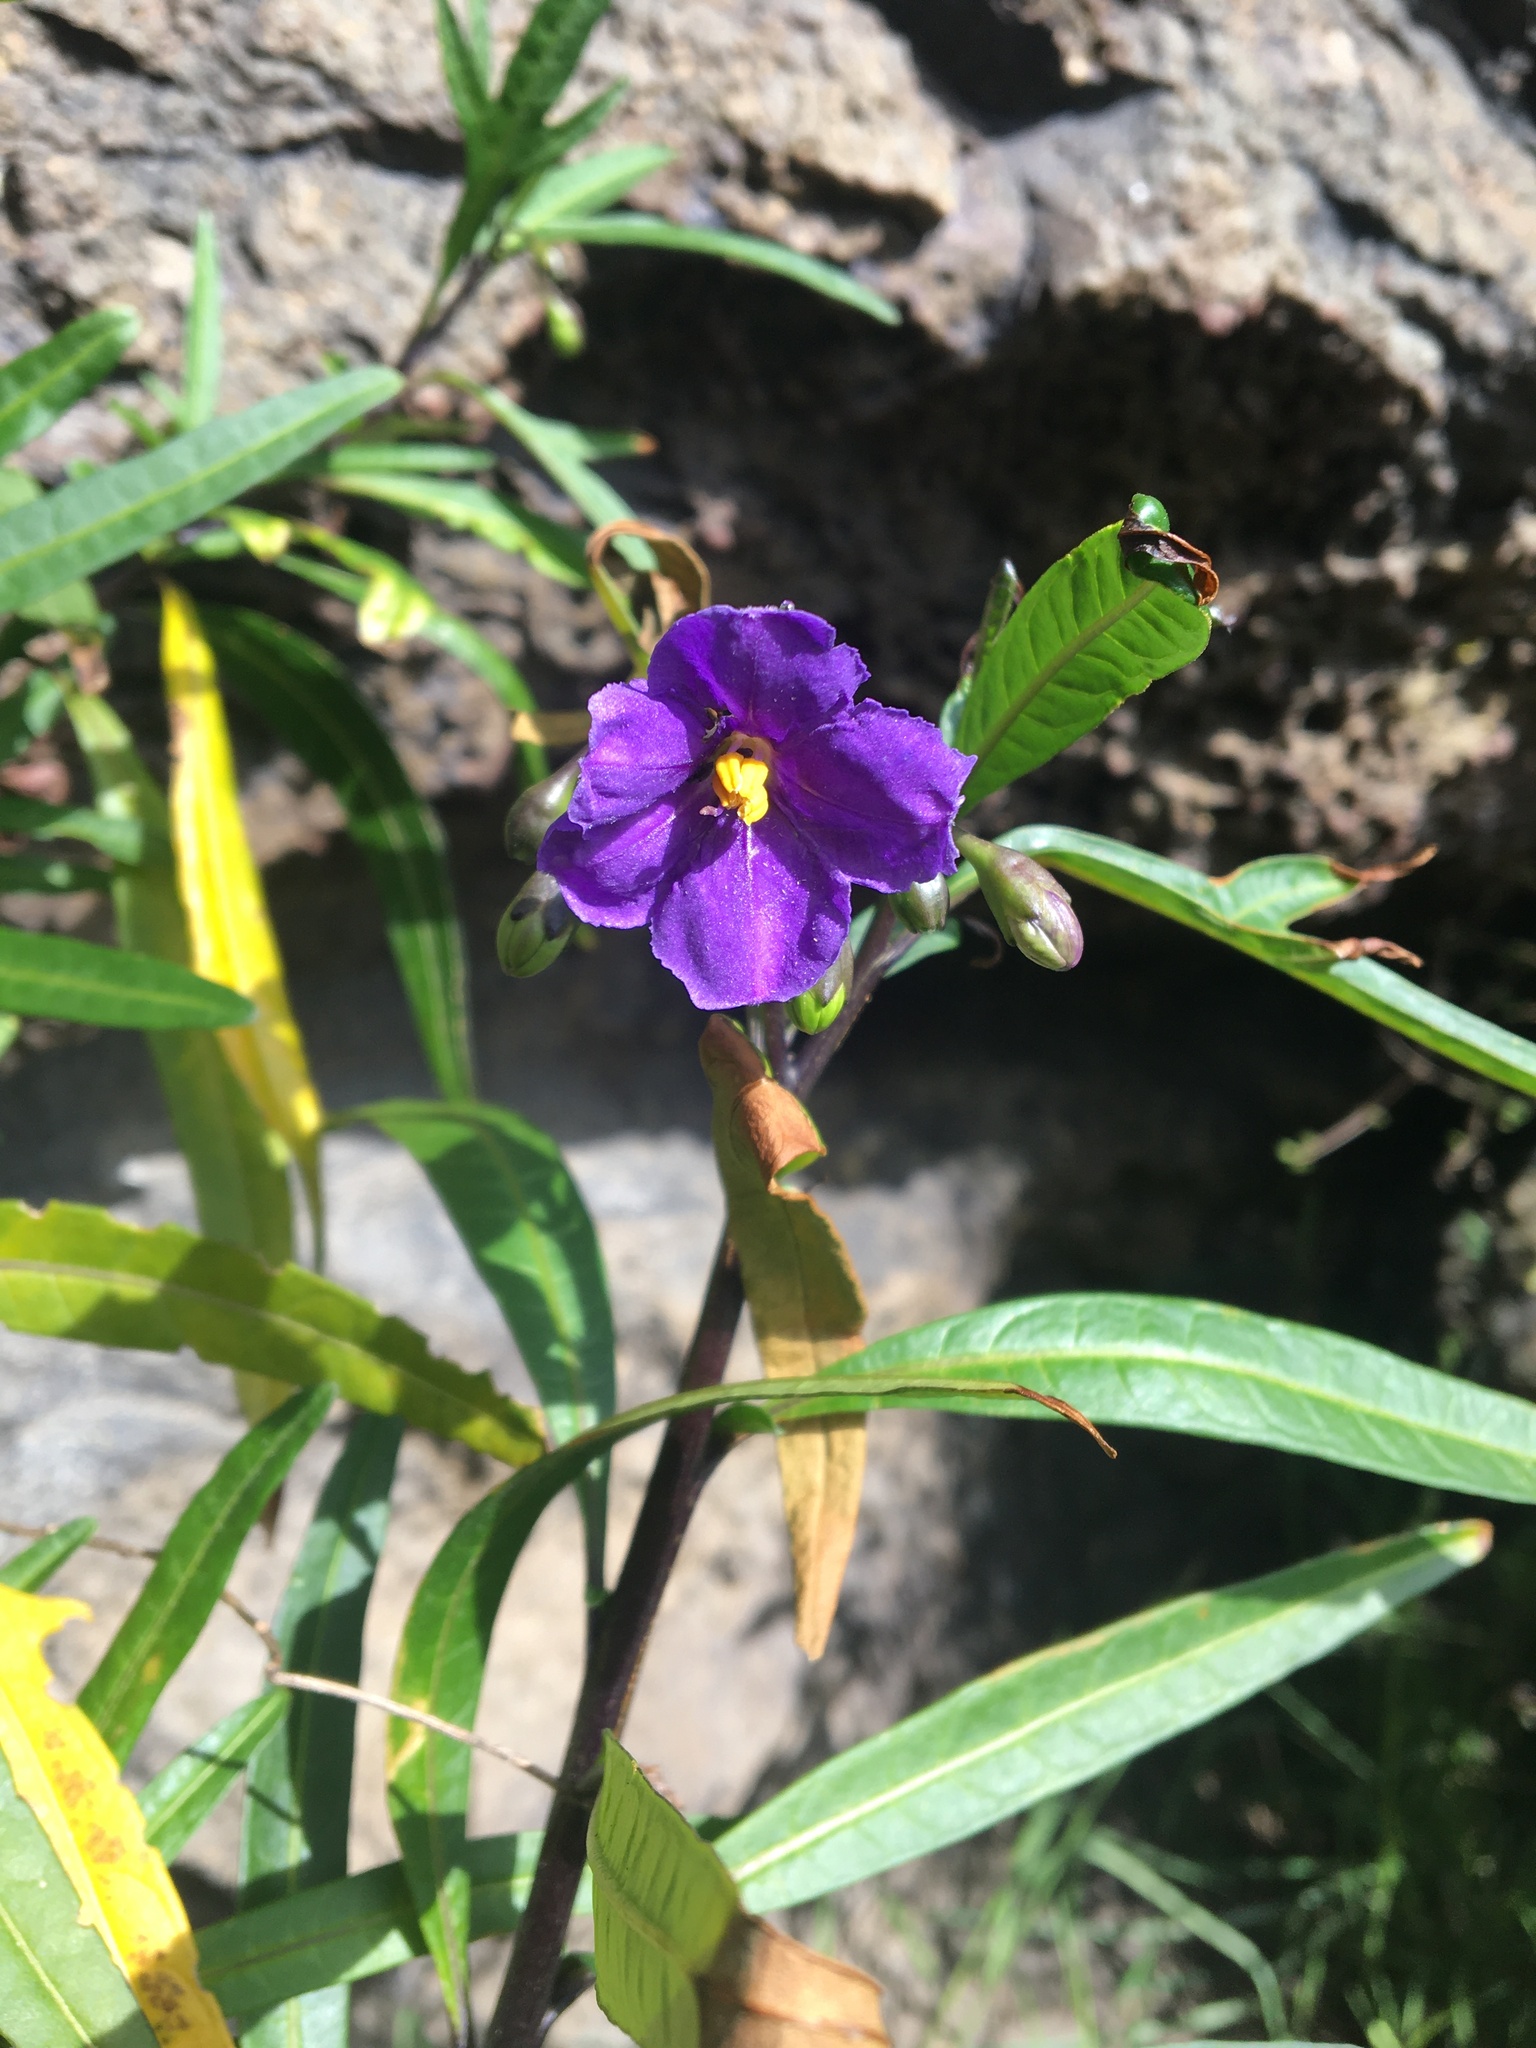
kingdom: Plantae
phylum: Tracheophyta
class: Magnoliopsida
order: Solanales
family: Solanaceae
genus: Solanum
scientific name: Solanum laciniatum
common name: Kangaroo-apple
